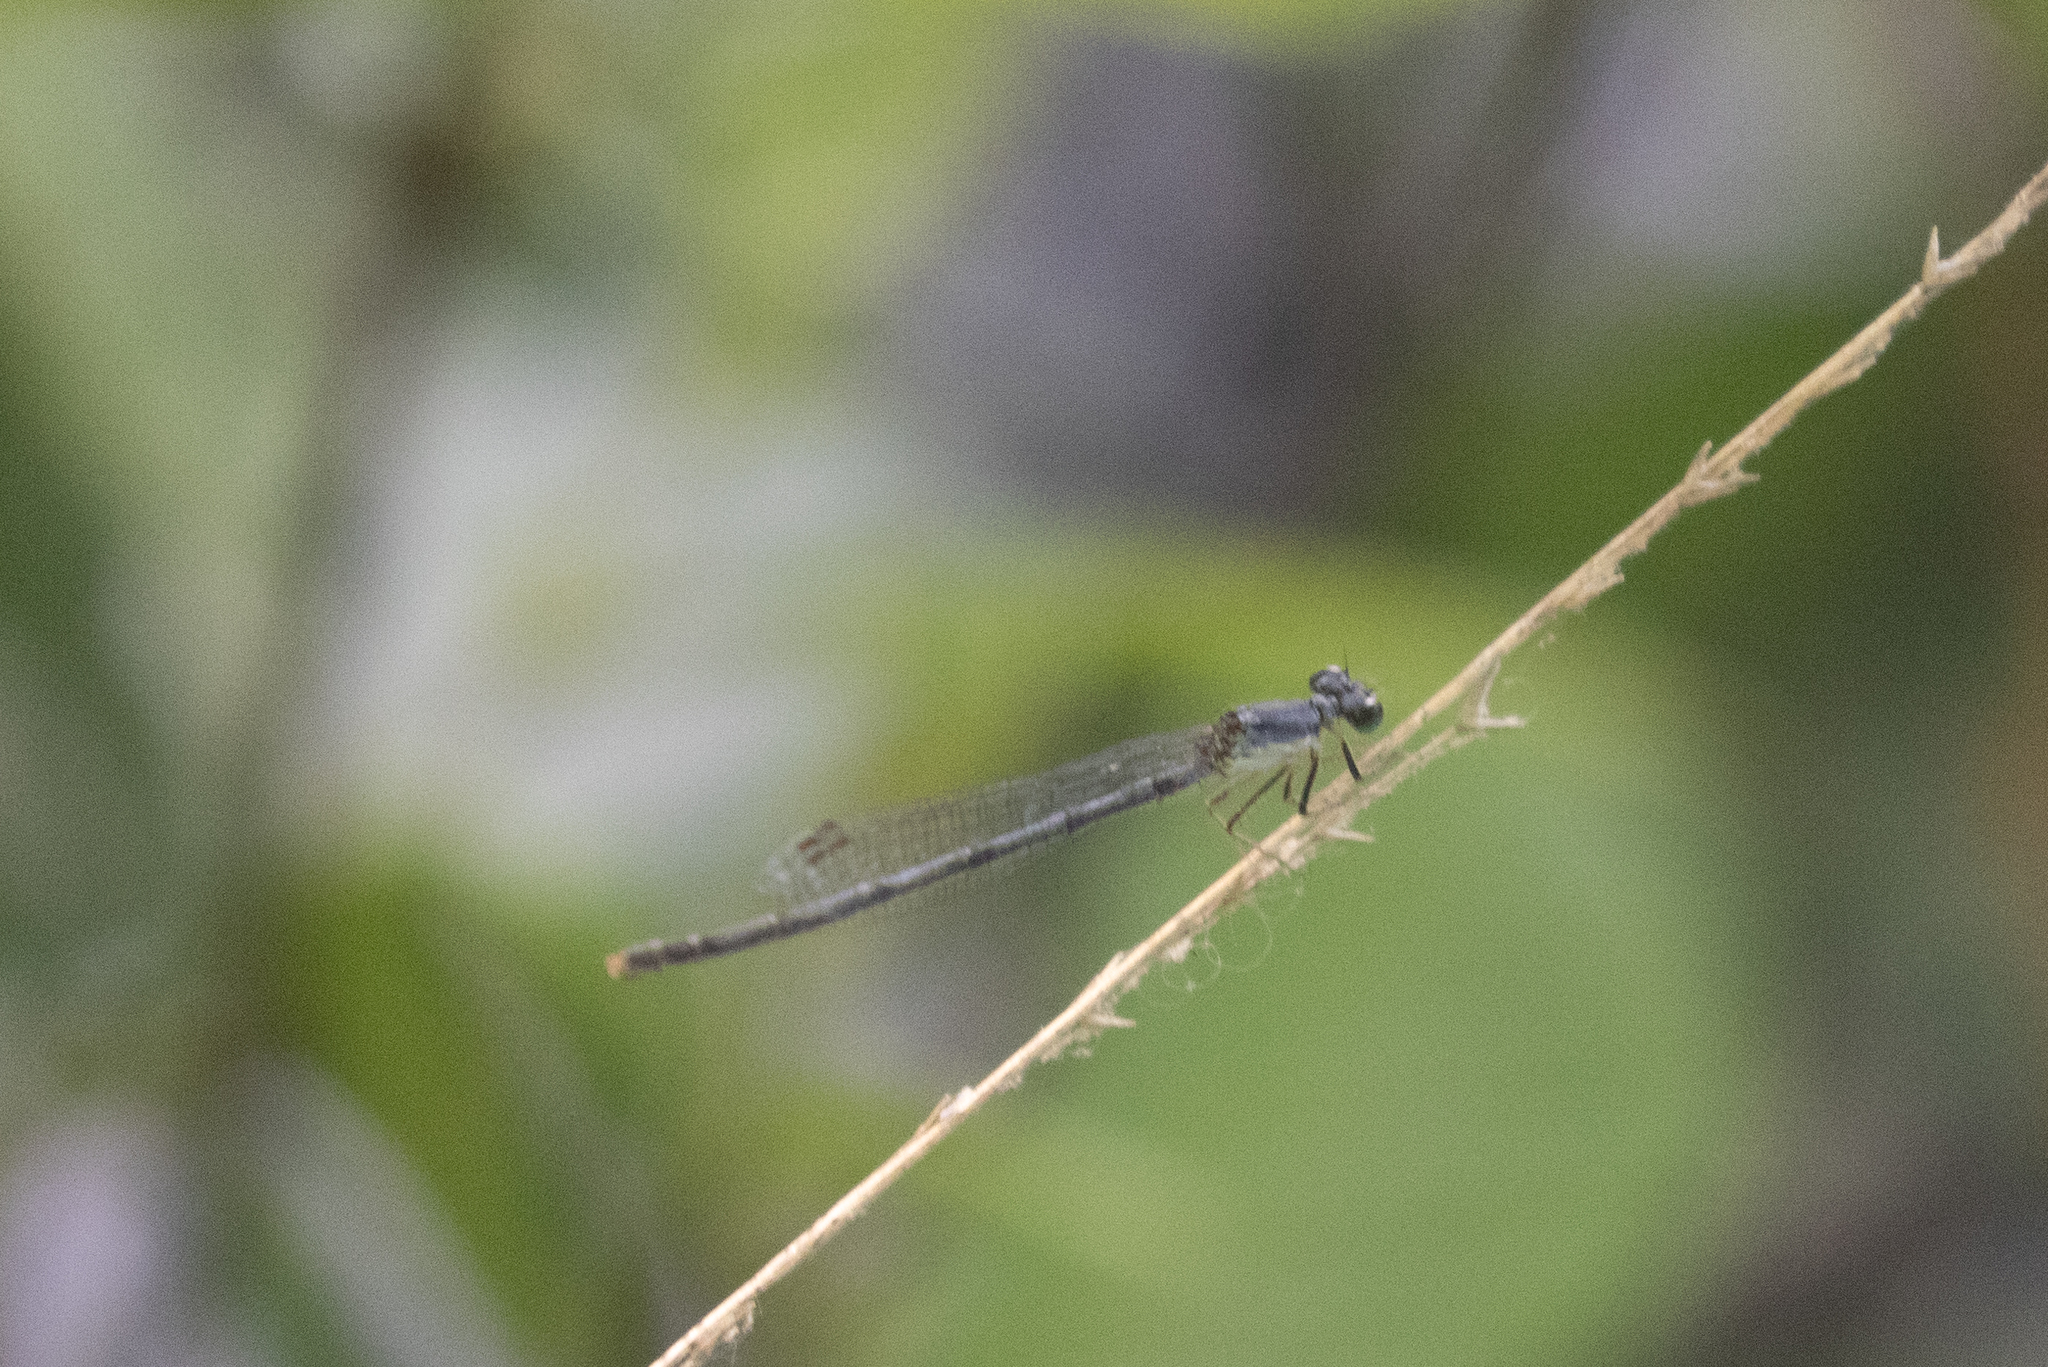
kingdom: Animalia
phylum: Arthropoda
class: Insecta
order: Odonata
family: Coenagrionidae
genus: Ischnura
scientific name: Ischnura posita
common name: Fragile forktail
